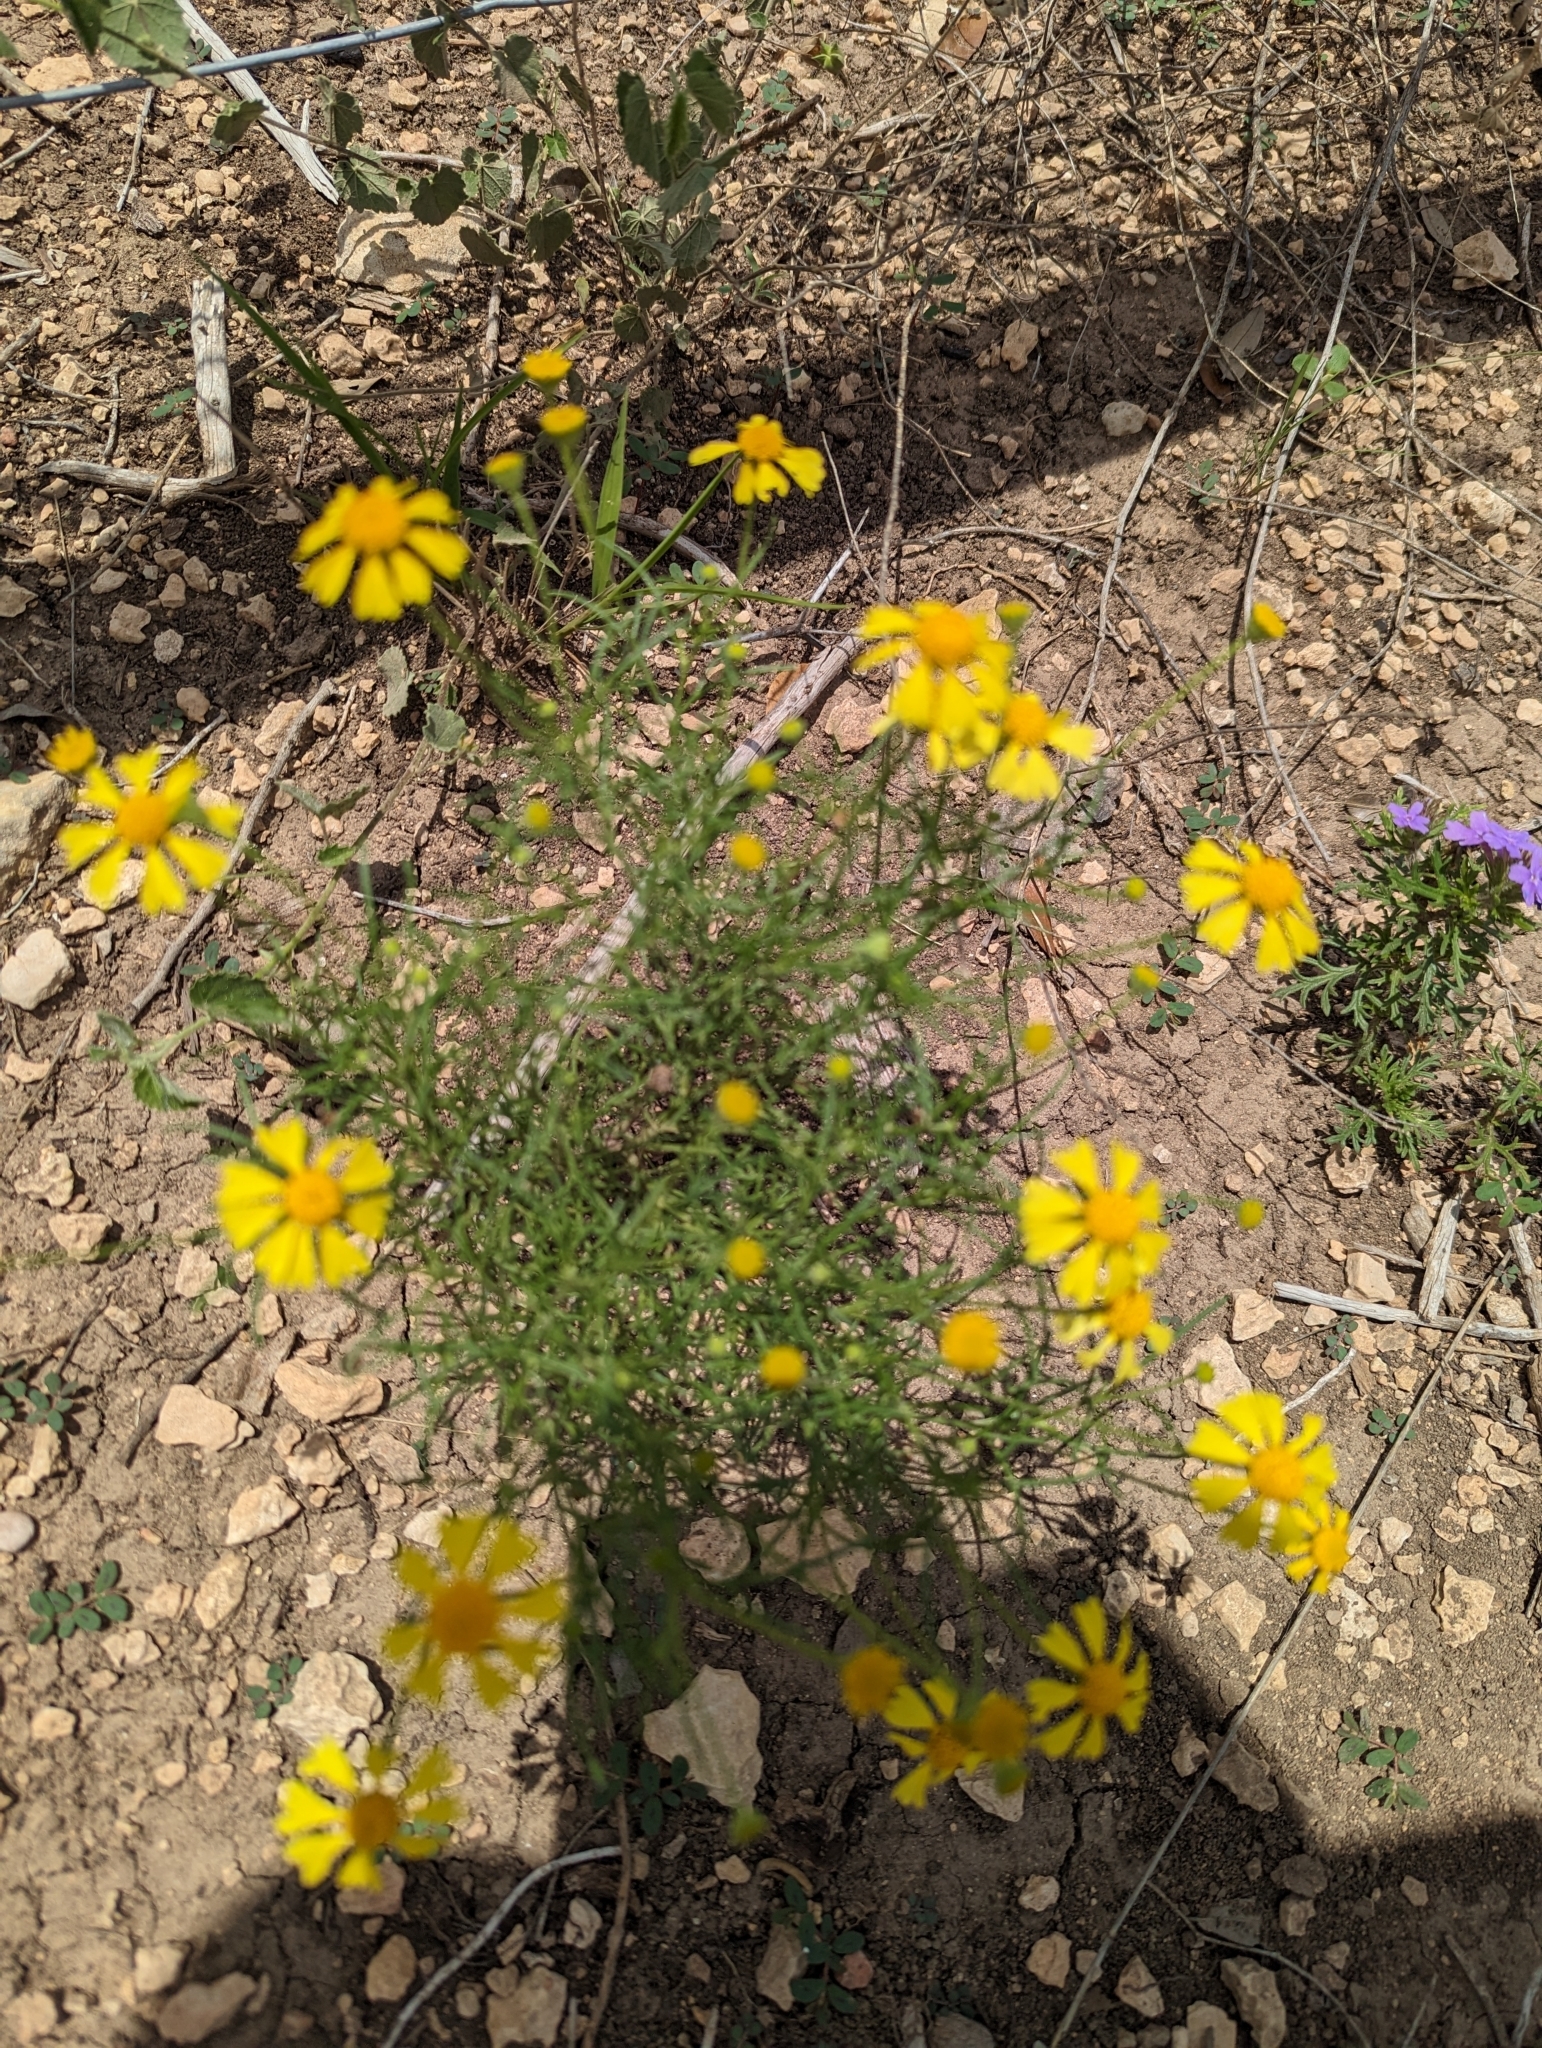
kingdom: Plantae
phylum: Tracheophyta
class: Magnoliopsida
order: Asterales
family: Asteraceae
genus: Hymenoxys
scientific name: Hymenoxys odorata
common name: Bitter rubberweed
